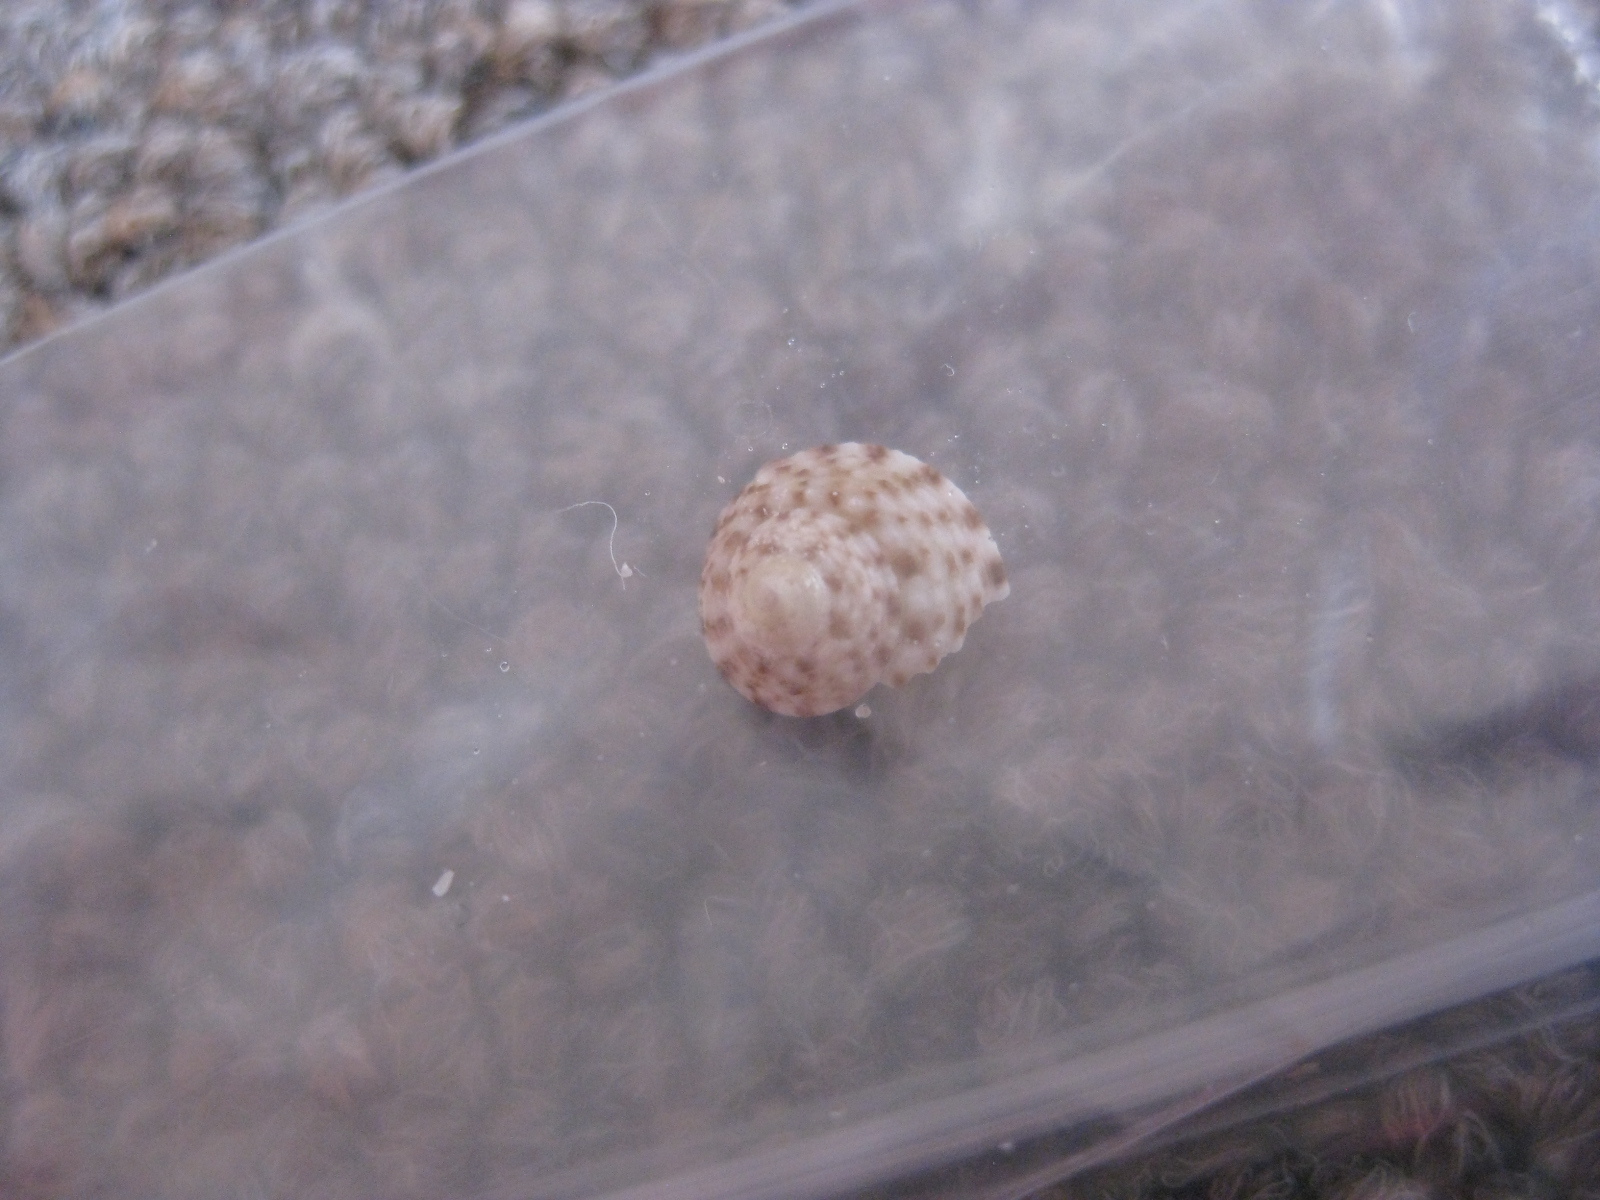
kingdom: Animalia
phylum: Mollusca
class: Gastropoda
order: Trochida
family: Trochidae
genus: Coelotrochus
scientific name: Coelotrochus tiaratus
